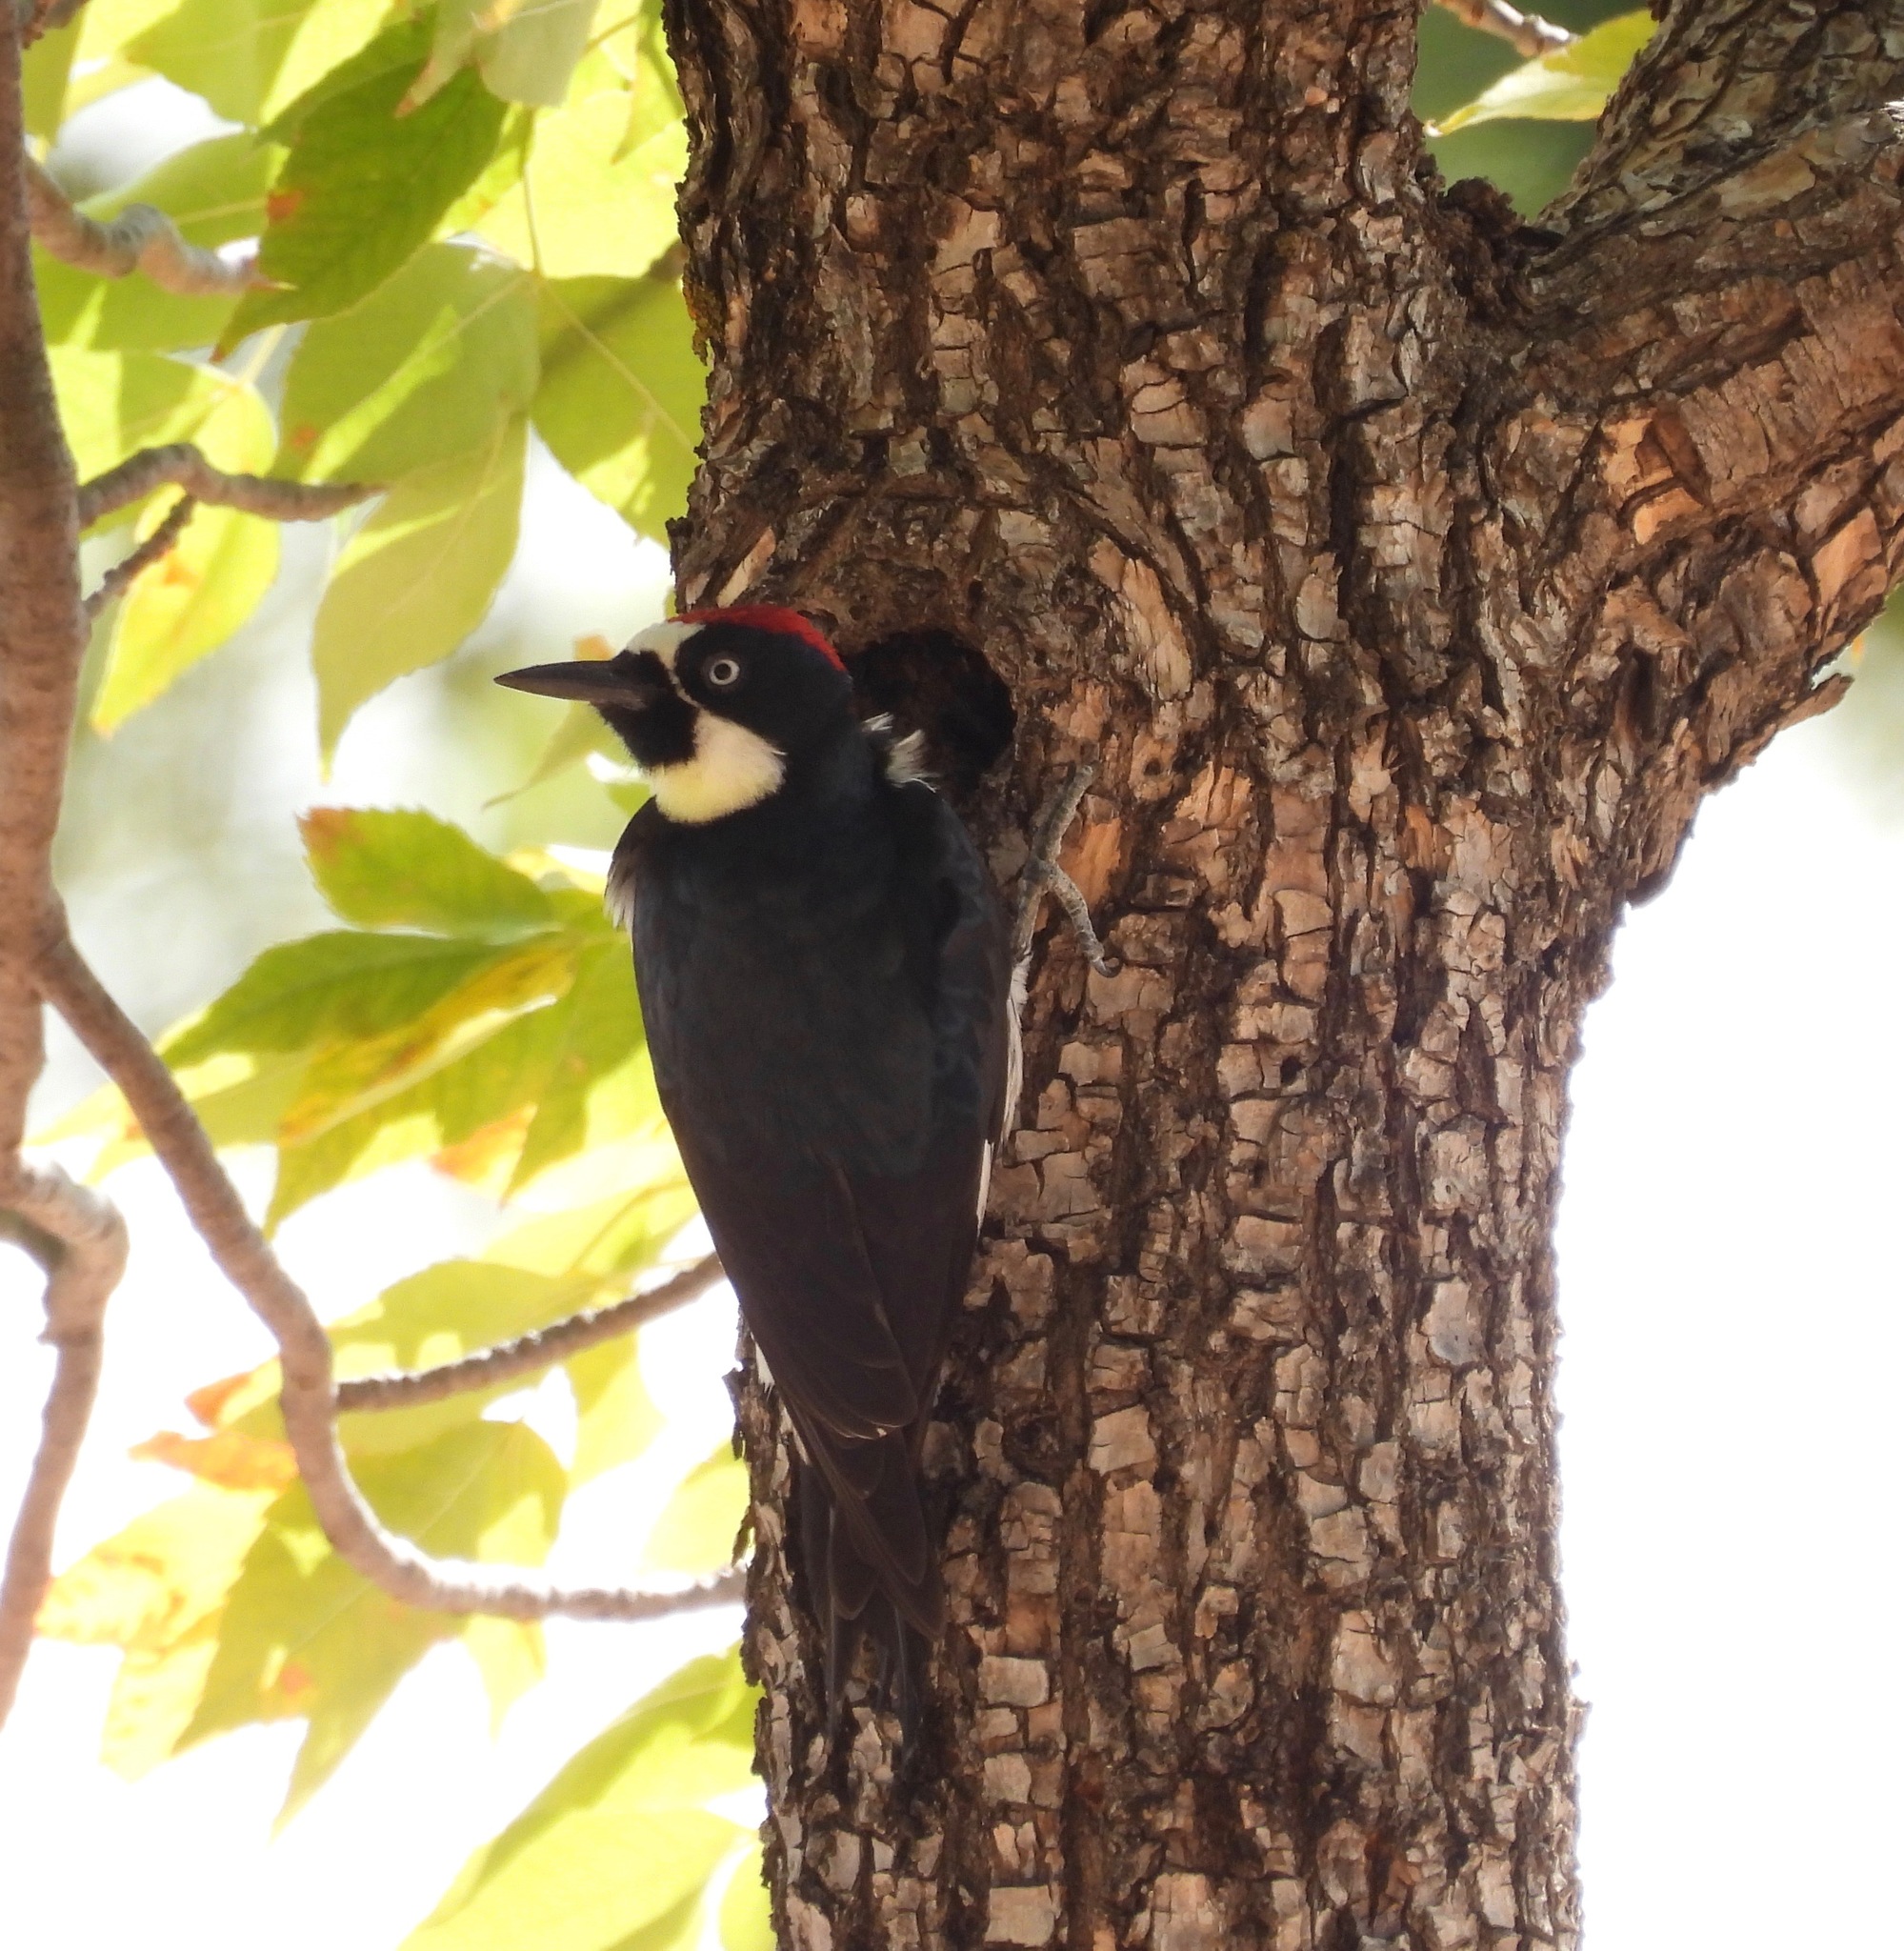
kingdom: Animalia
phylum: Chordata
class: Aves
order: Piciformes
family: Picidae
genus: Melanerpes
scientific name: Melanerpes formicivorus
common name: Acorn woodpecker
